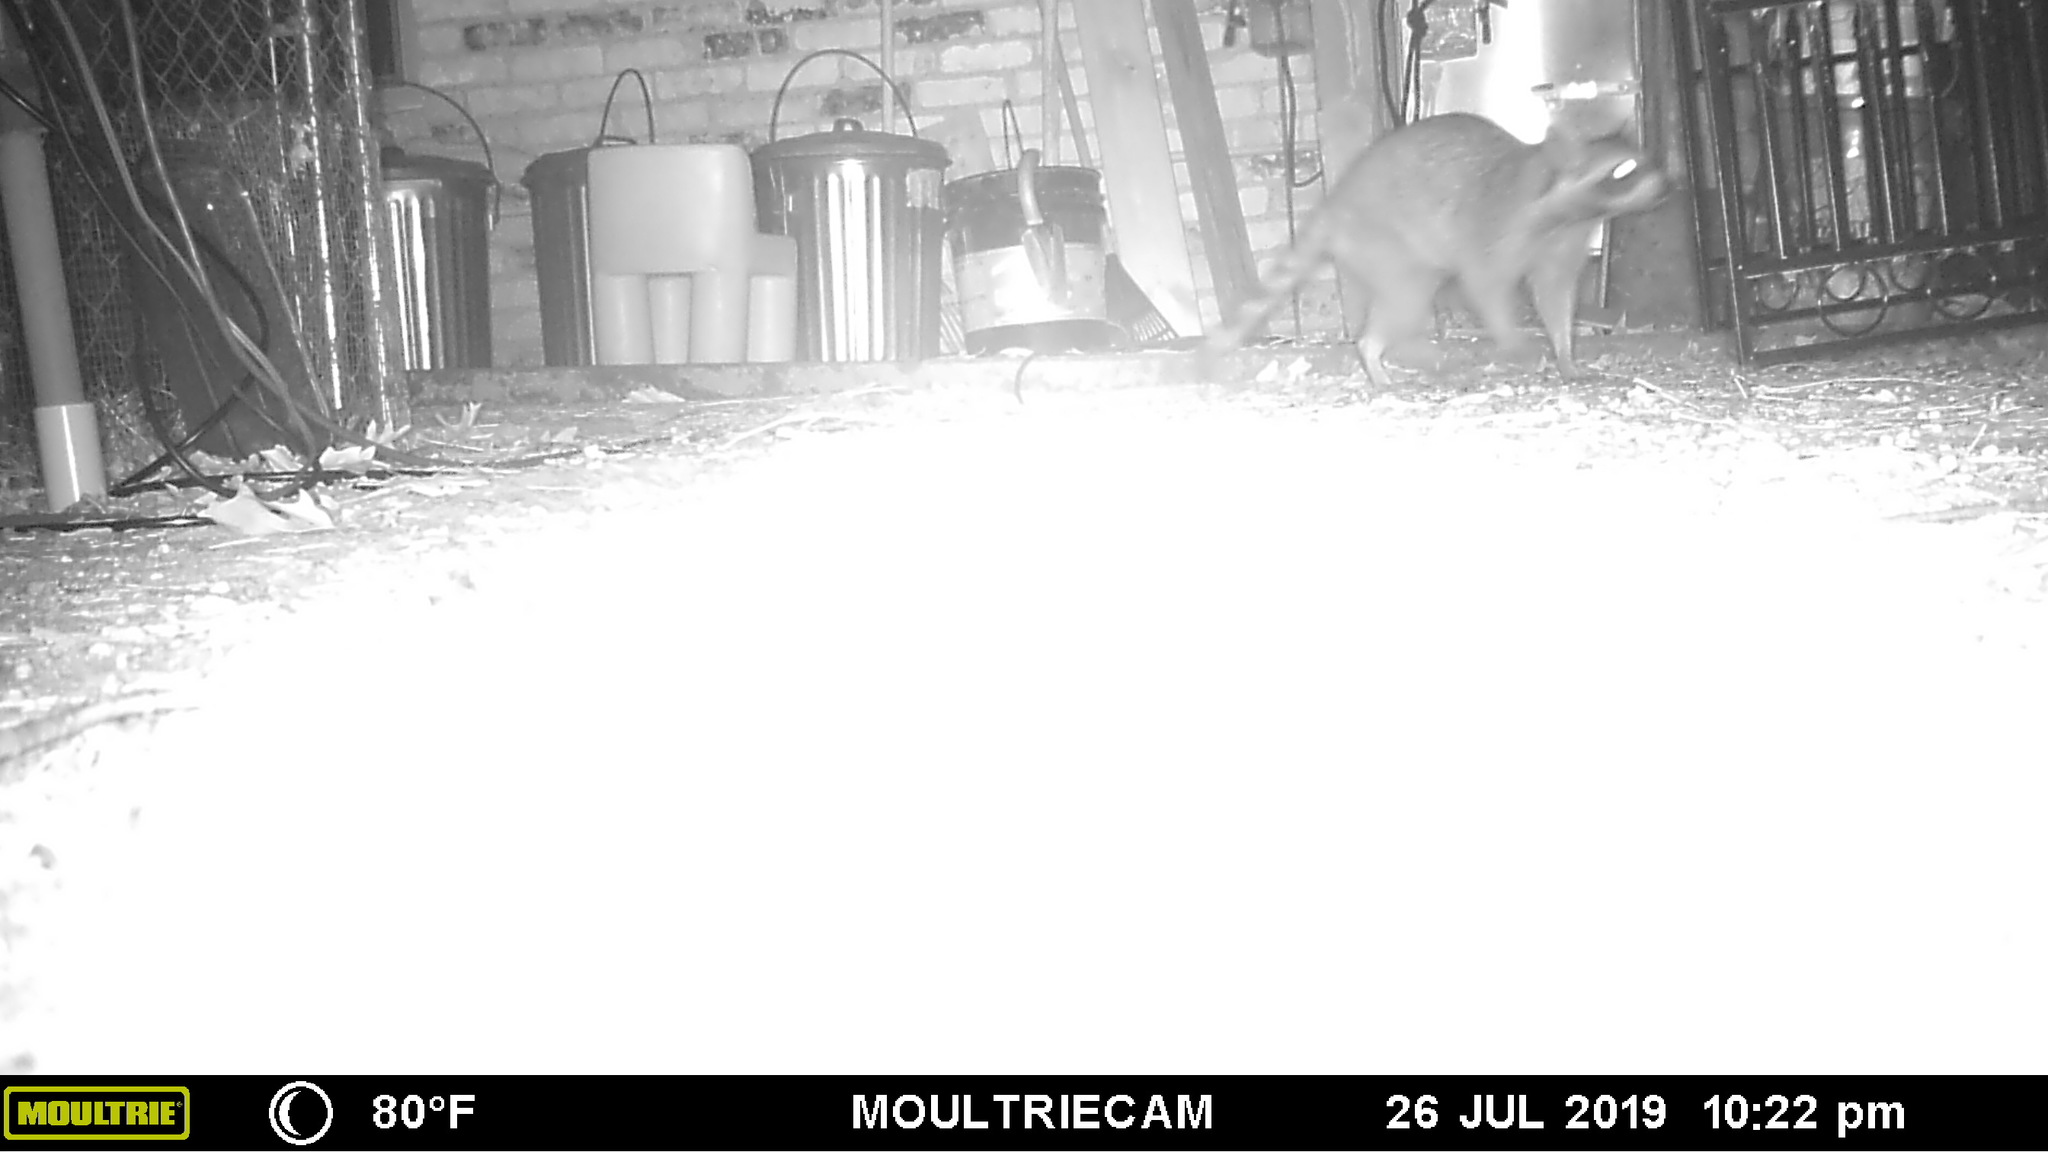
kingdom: Animalia
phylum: Chordata
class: Mammalia
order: Carnivora
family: Procyonidae
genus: Procyon
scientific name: Procyon lotor
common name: Raccoon
